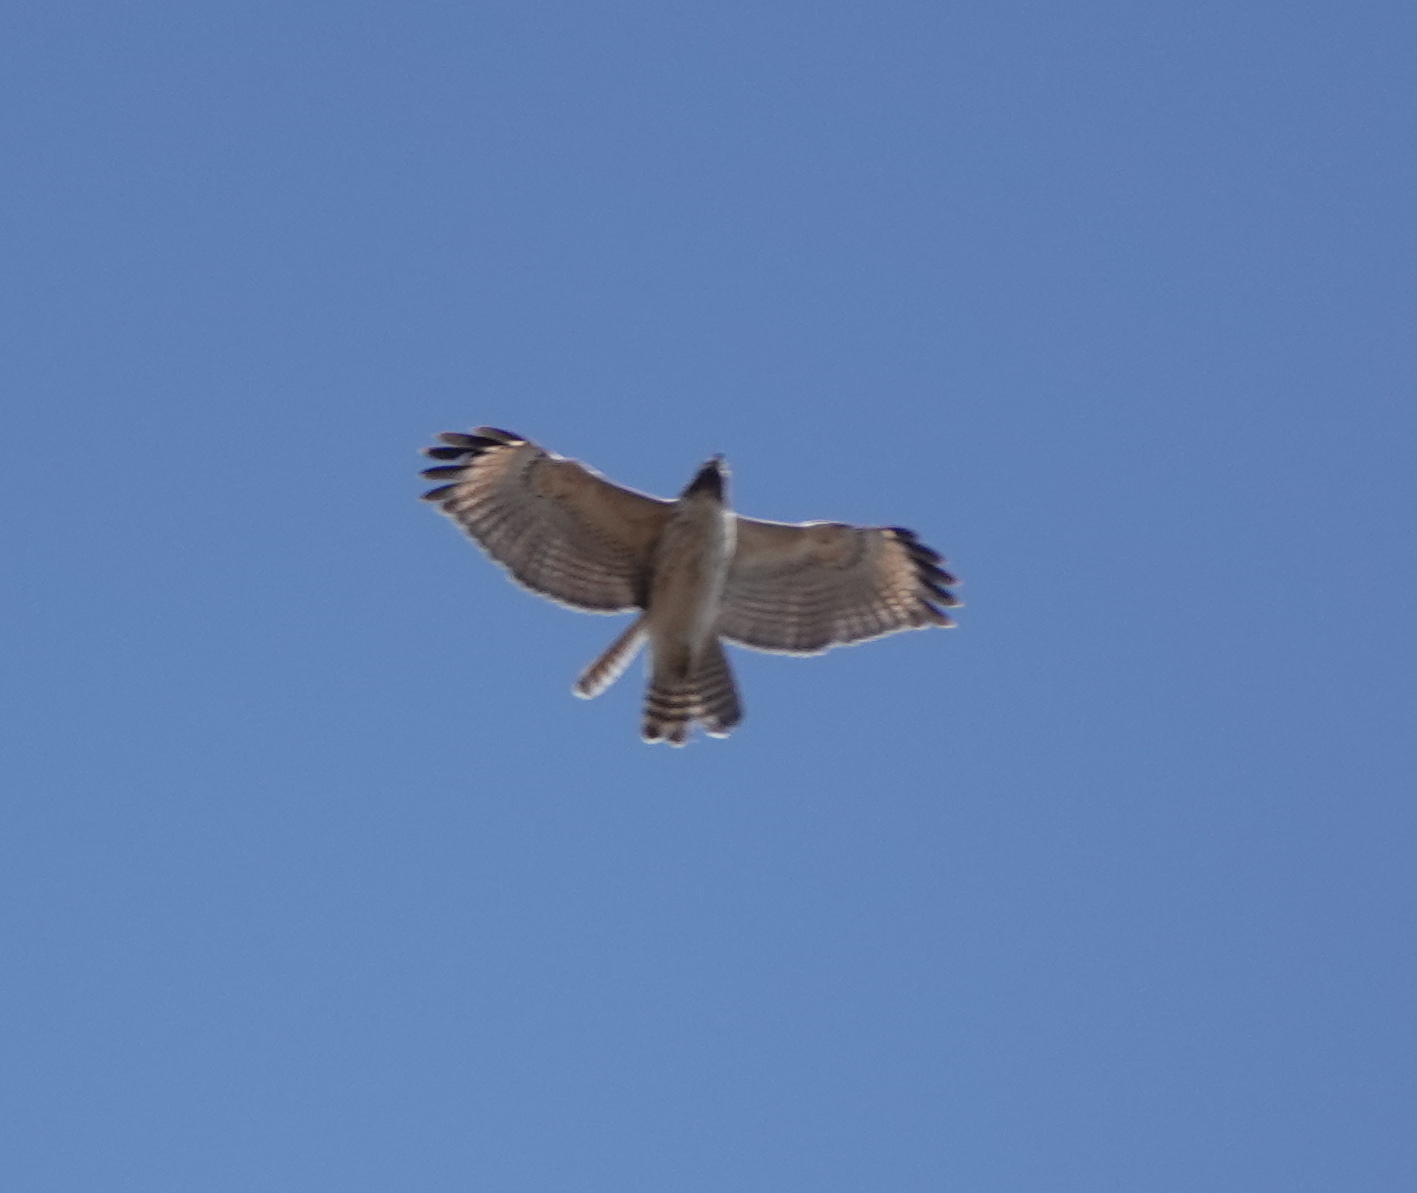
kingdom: Animalia
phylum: Chordata
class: Aves
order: Accipitriformes
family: Accipitridae
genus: Buteo
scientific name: Buteo lineatus
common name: Red-shouldered hawk
